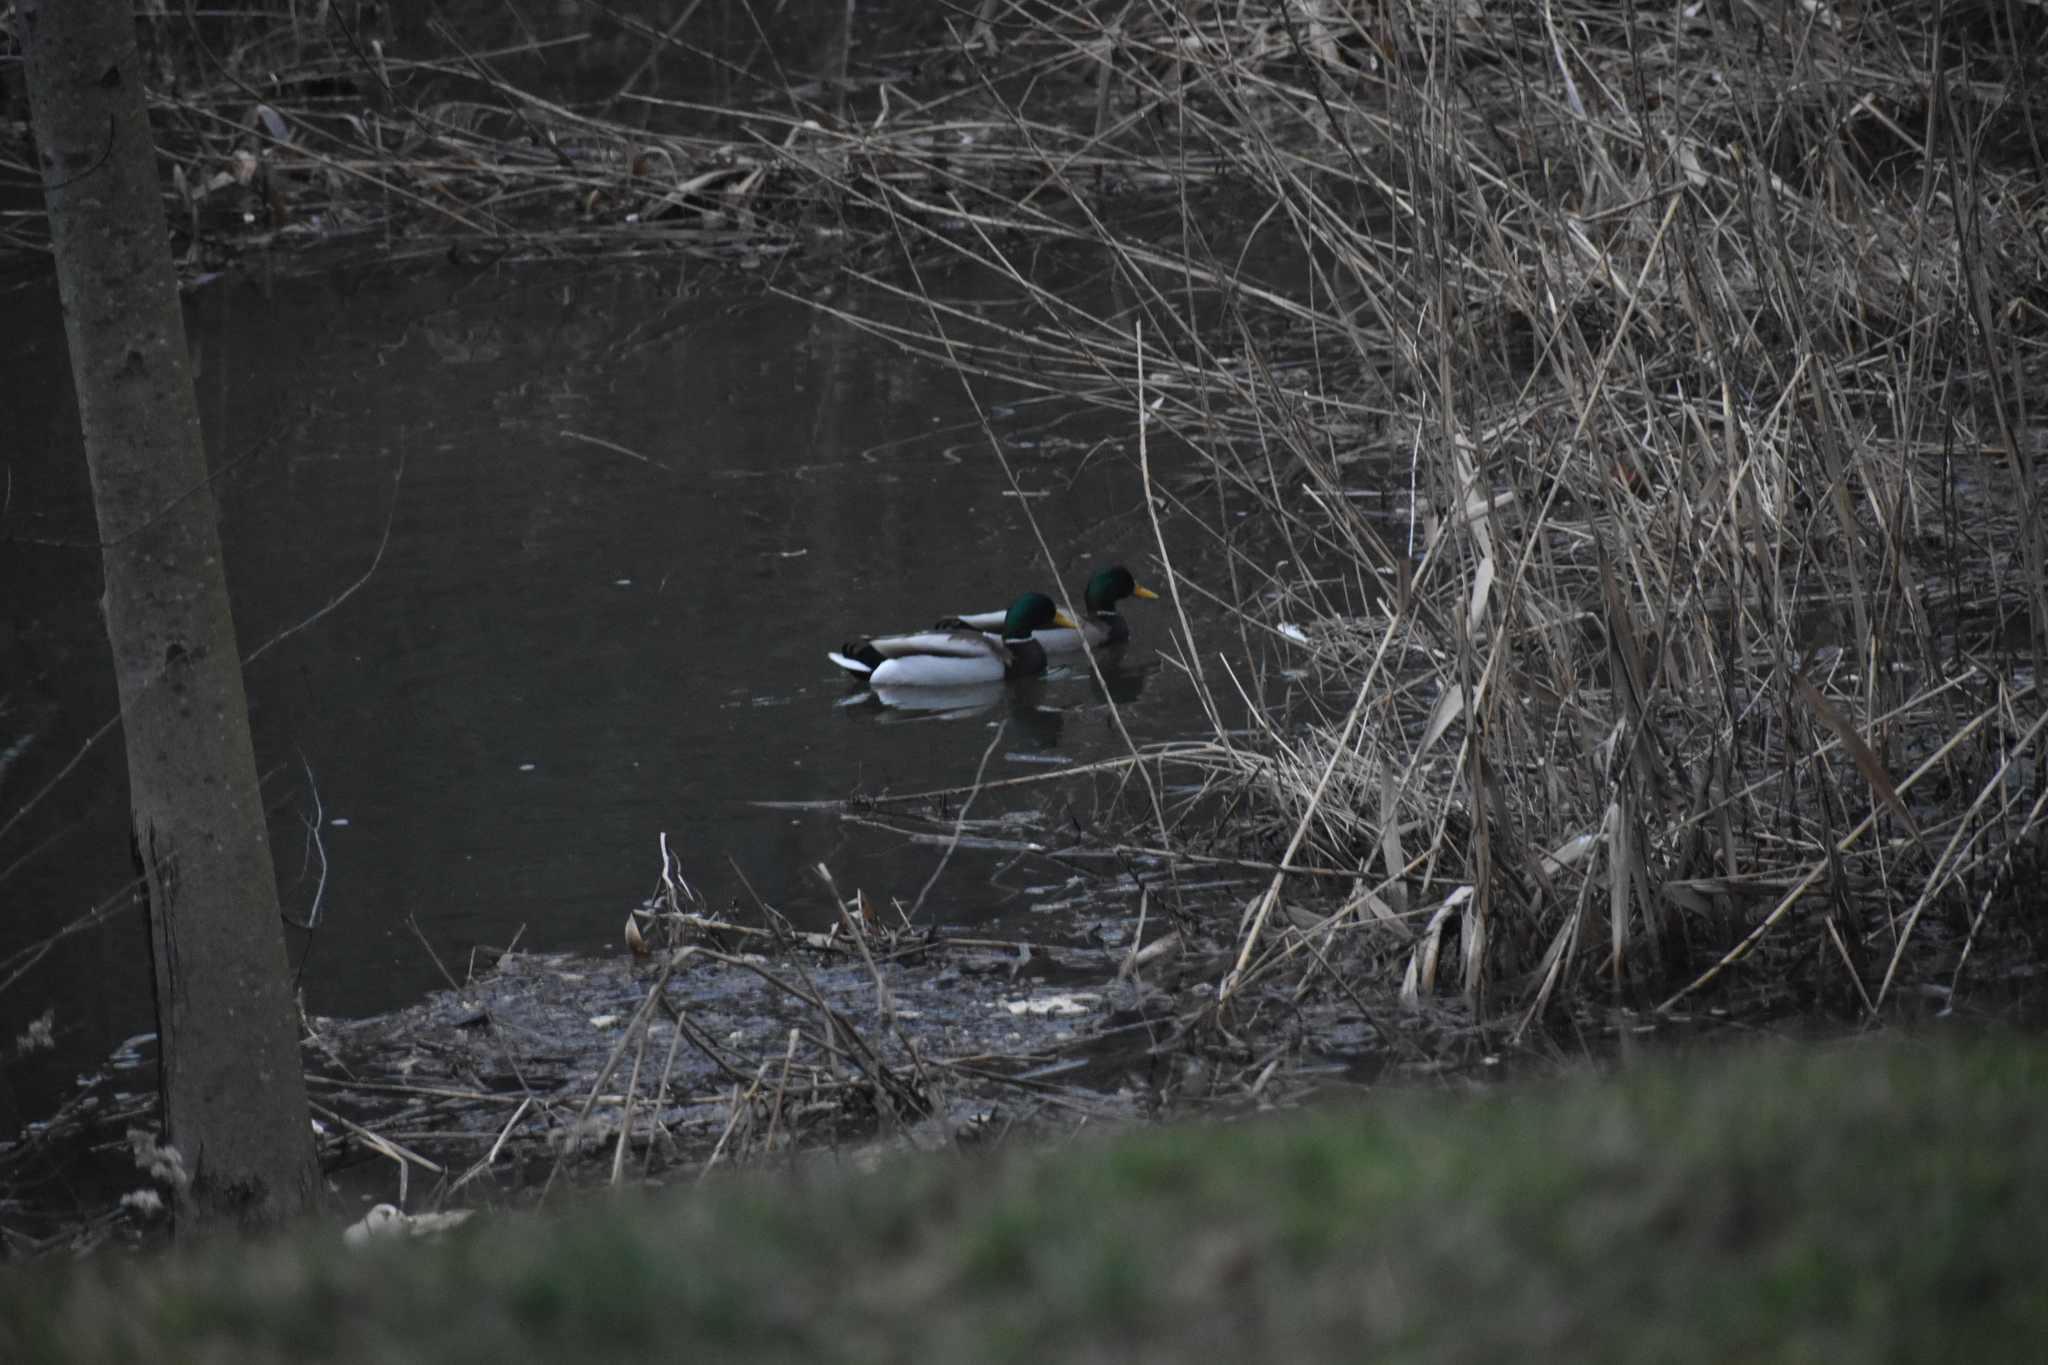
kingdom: Animalia
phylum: Chordata
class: Aves
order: Anseriformes
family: Anatidae
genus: Anas
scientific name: Anas platyrhynchos
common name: Mallard
